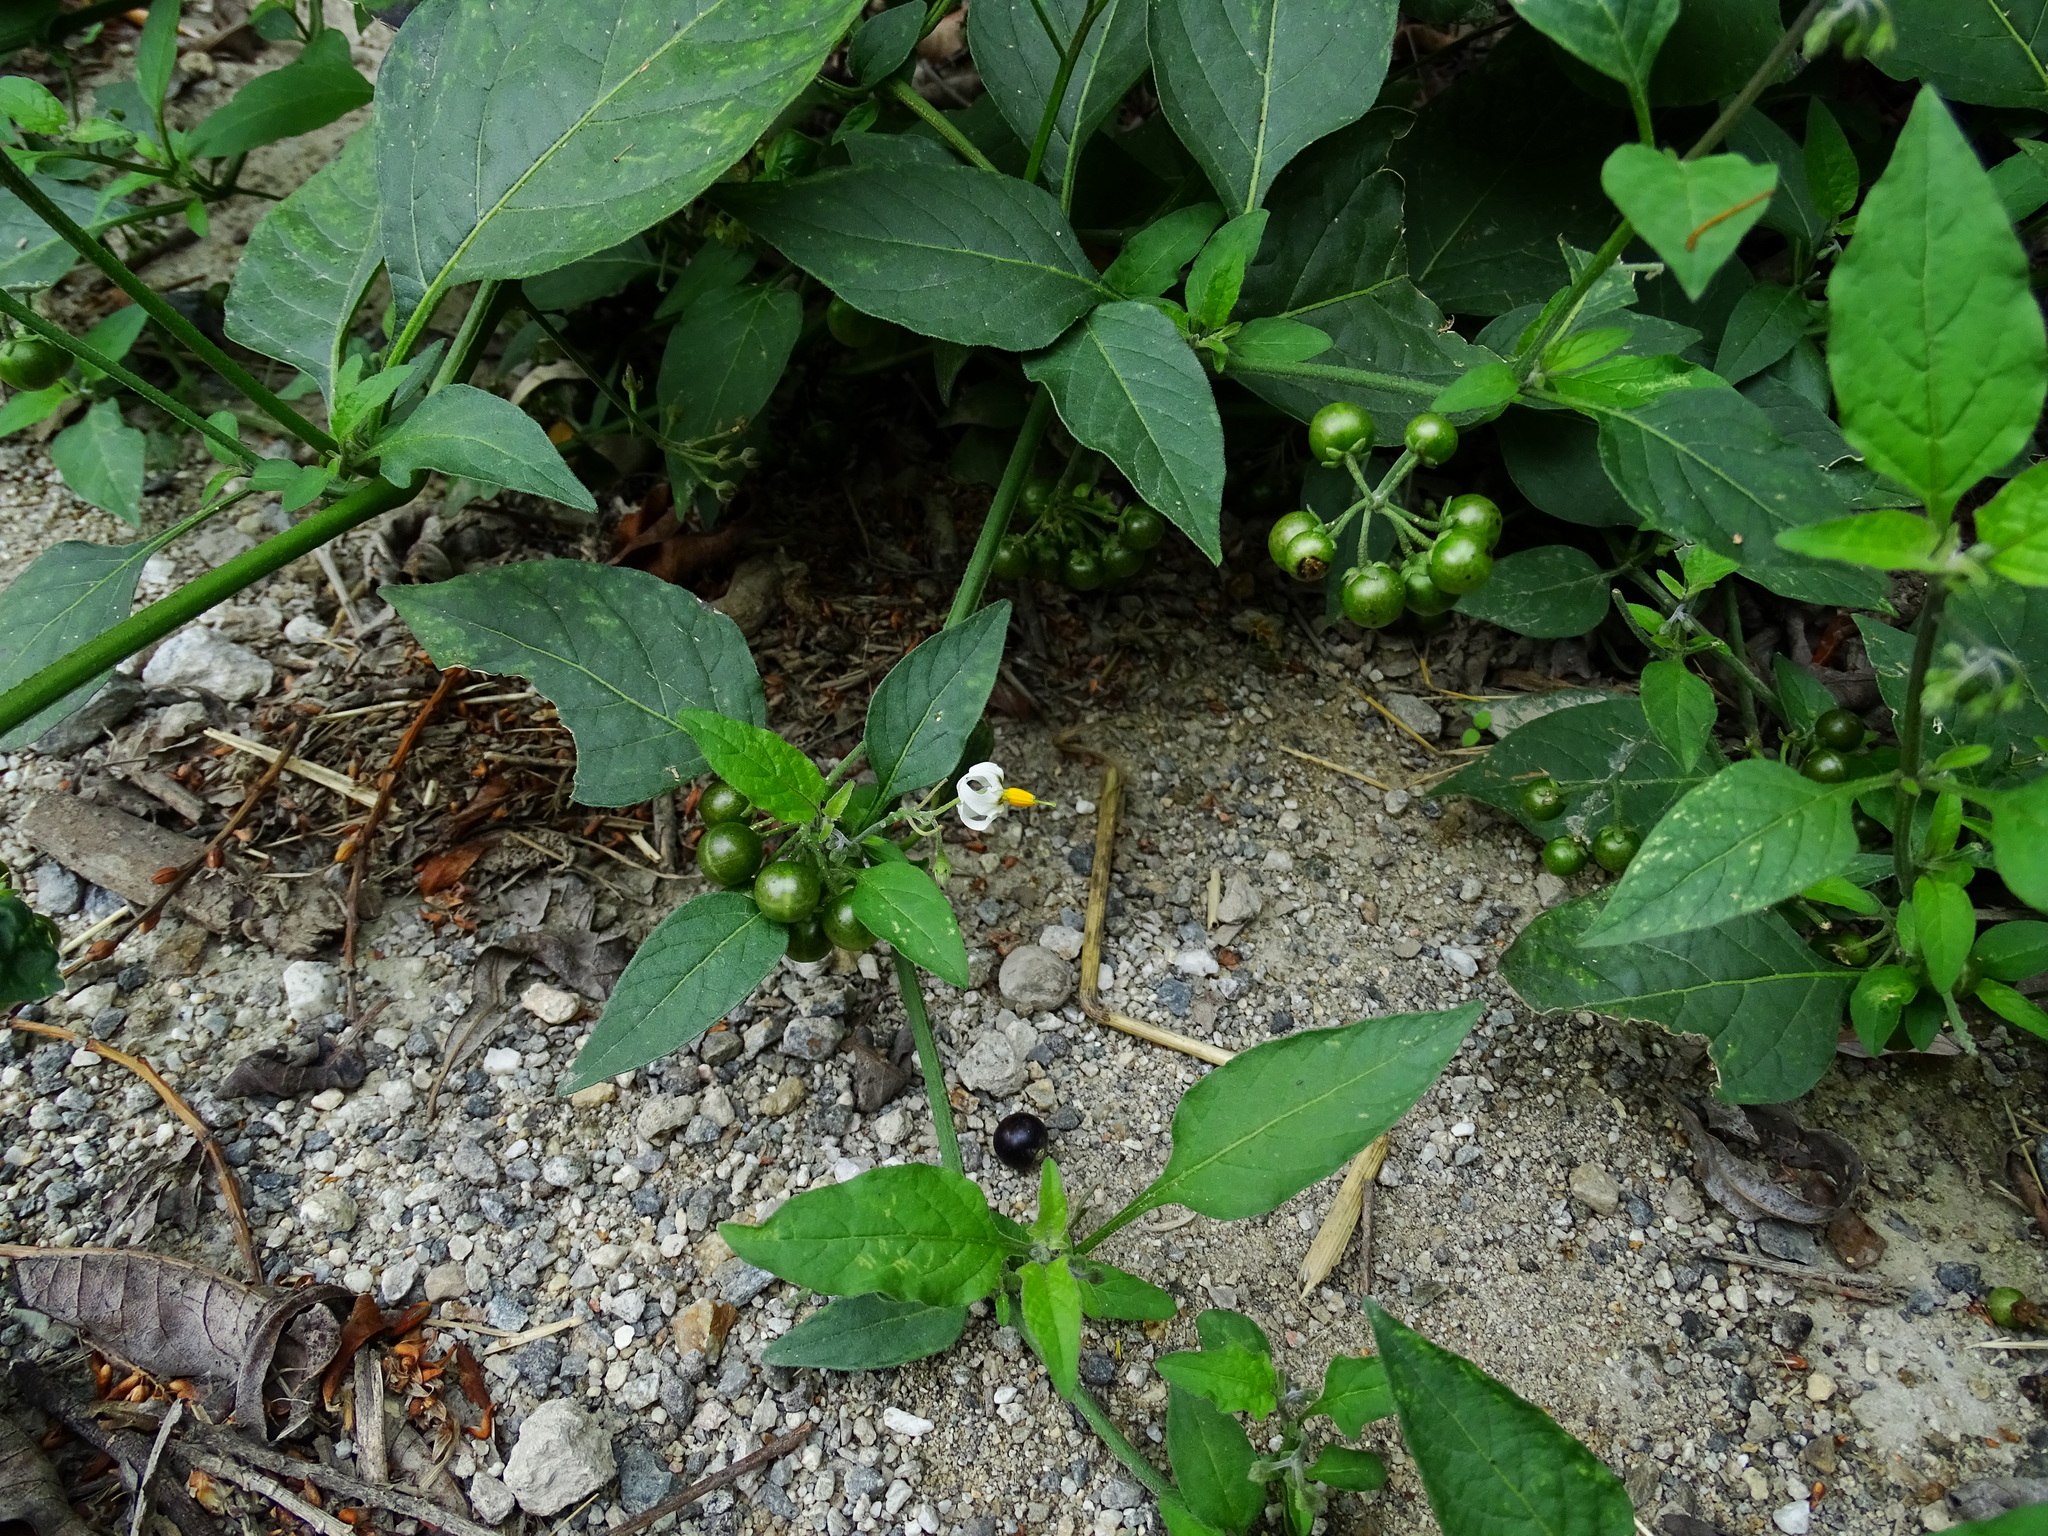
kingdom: Plantae
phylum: Tracheophyta
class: Magnoliopsida
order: Solanales
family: Solanaceae
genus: Solanum
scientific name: Solanum douglasii
